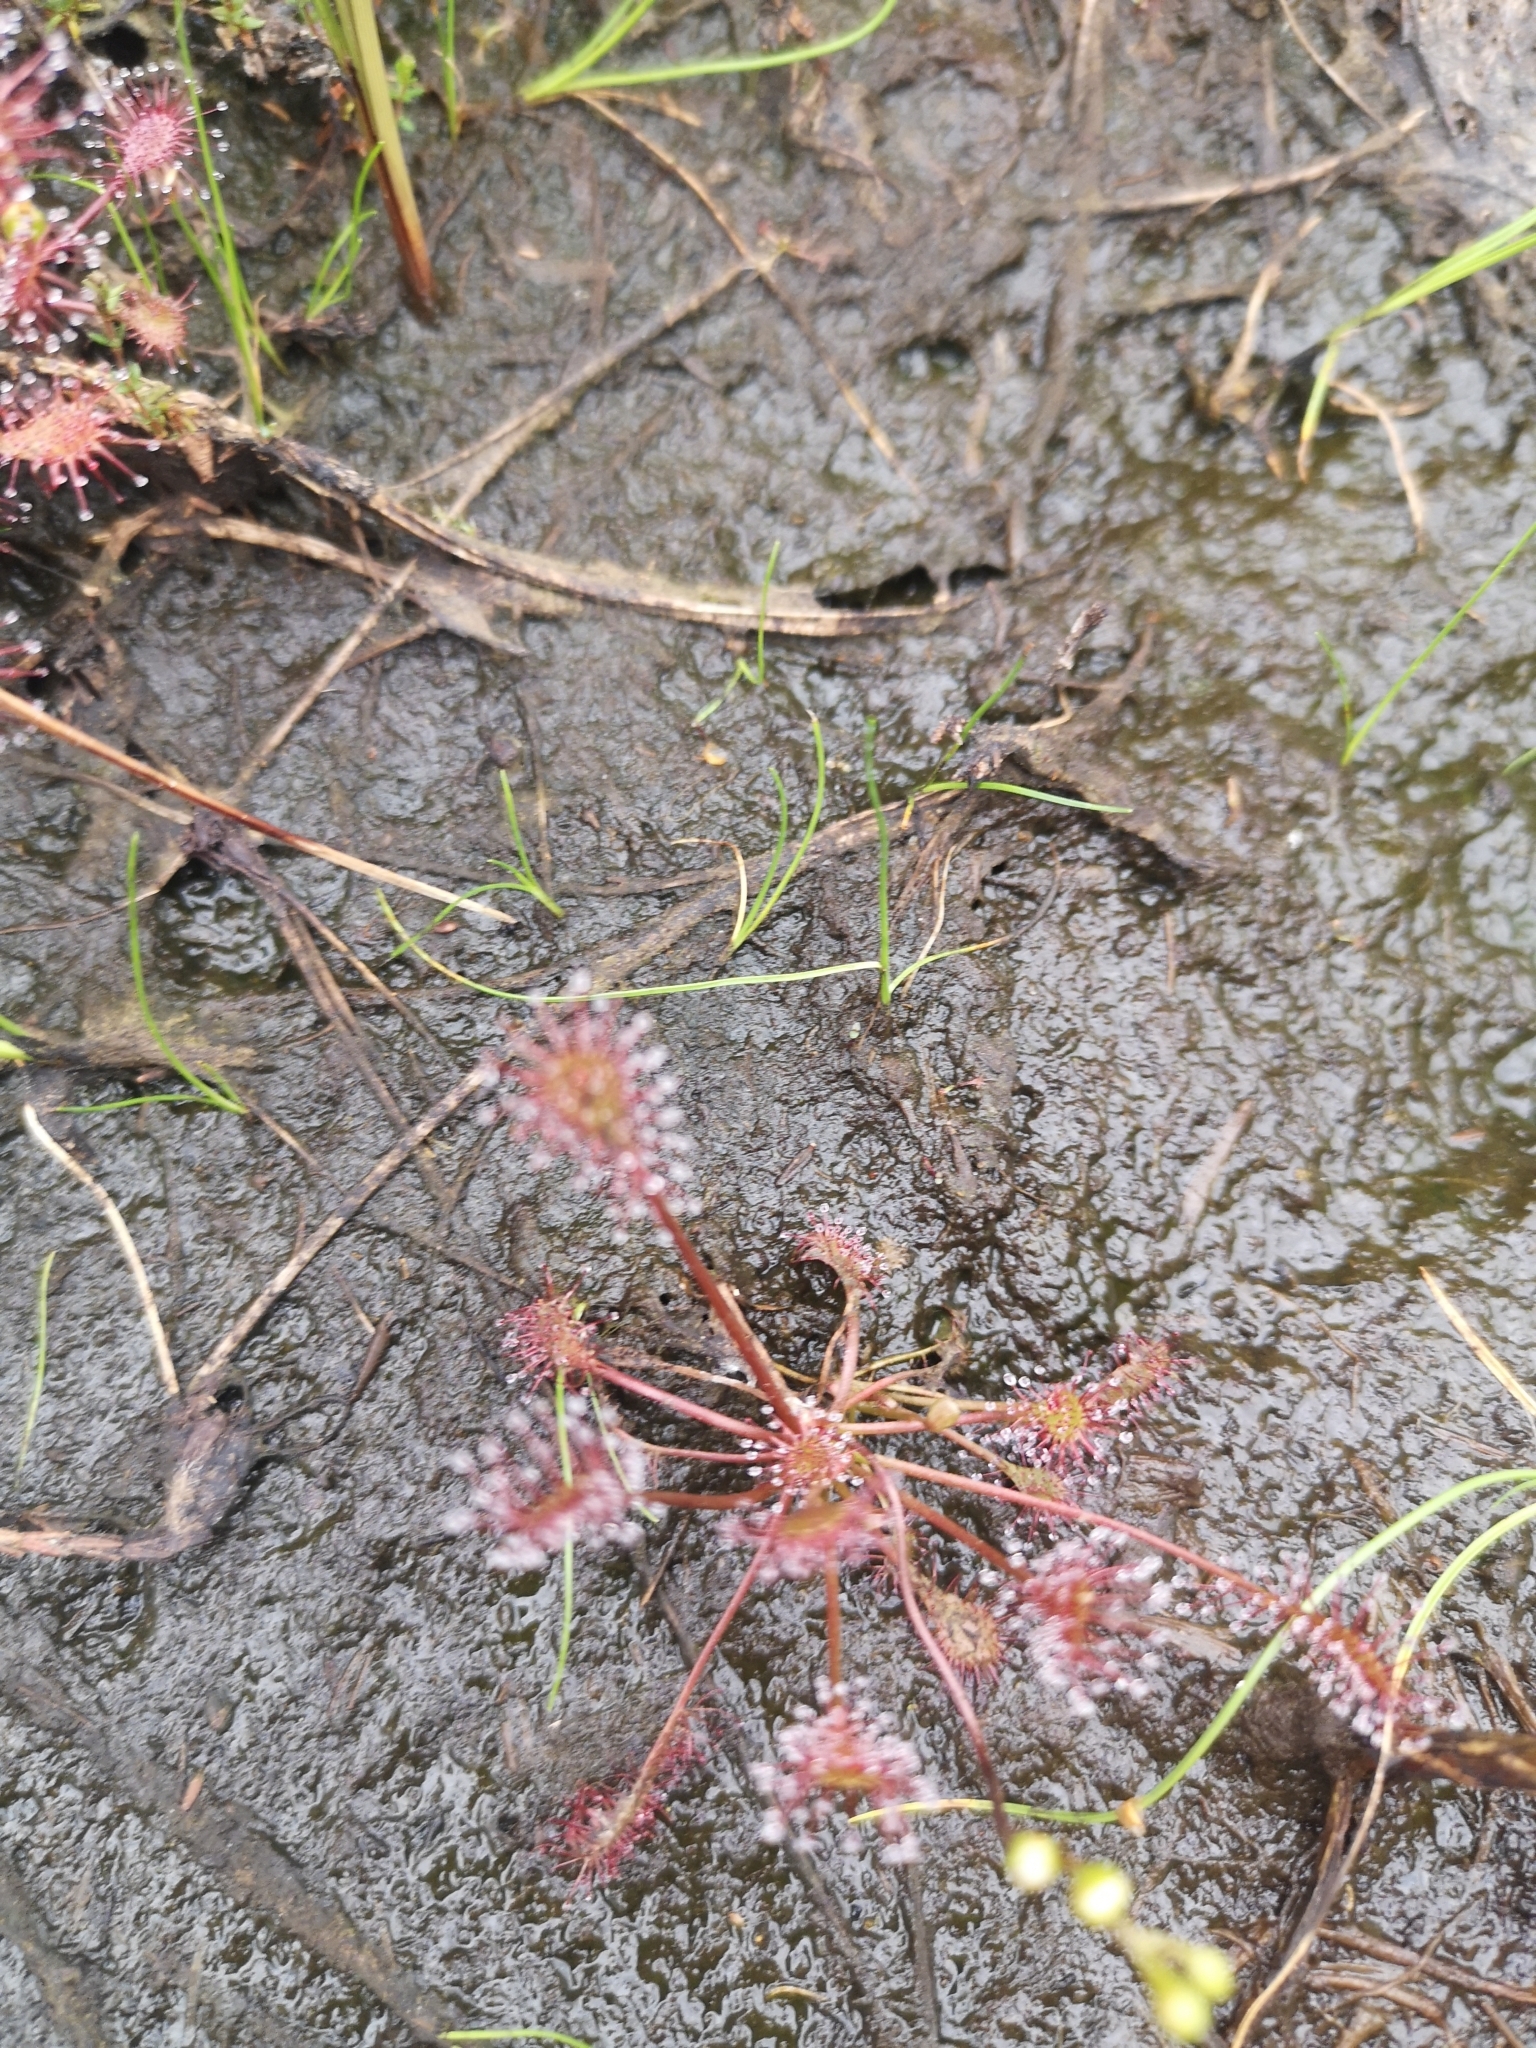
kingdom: Plantae
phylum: Tracheophyta
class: Magnoliopsida
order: Caryophyllales
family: Droseraceae
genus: Drosera
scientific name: Drosera intermedia
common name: Oblong-leaved sundew
